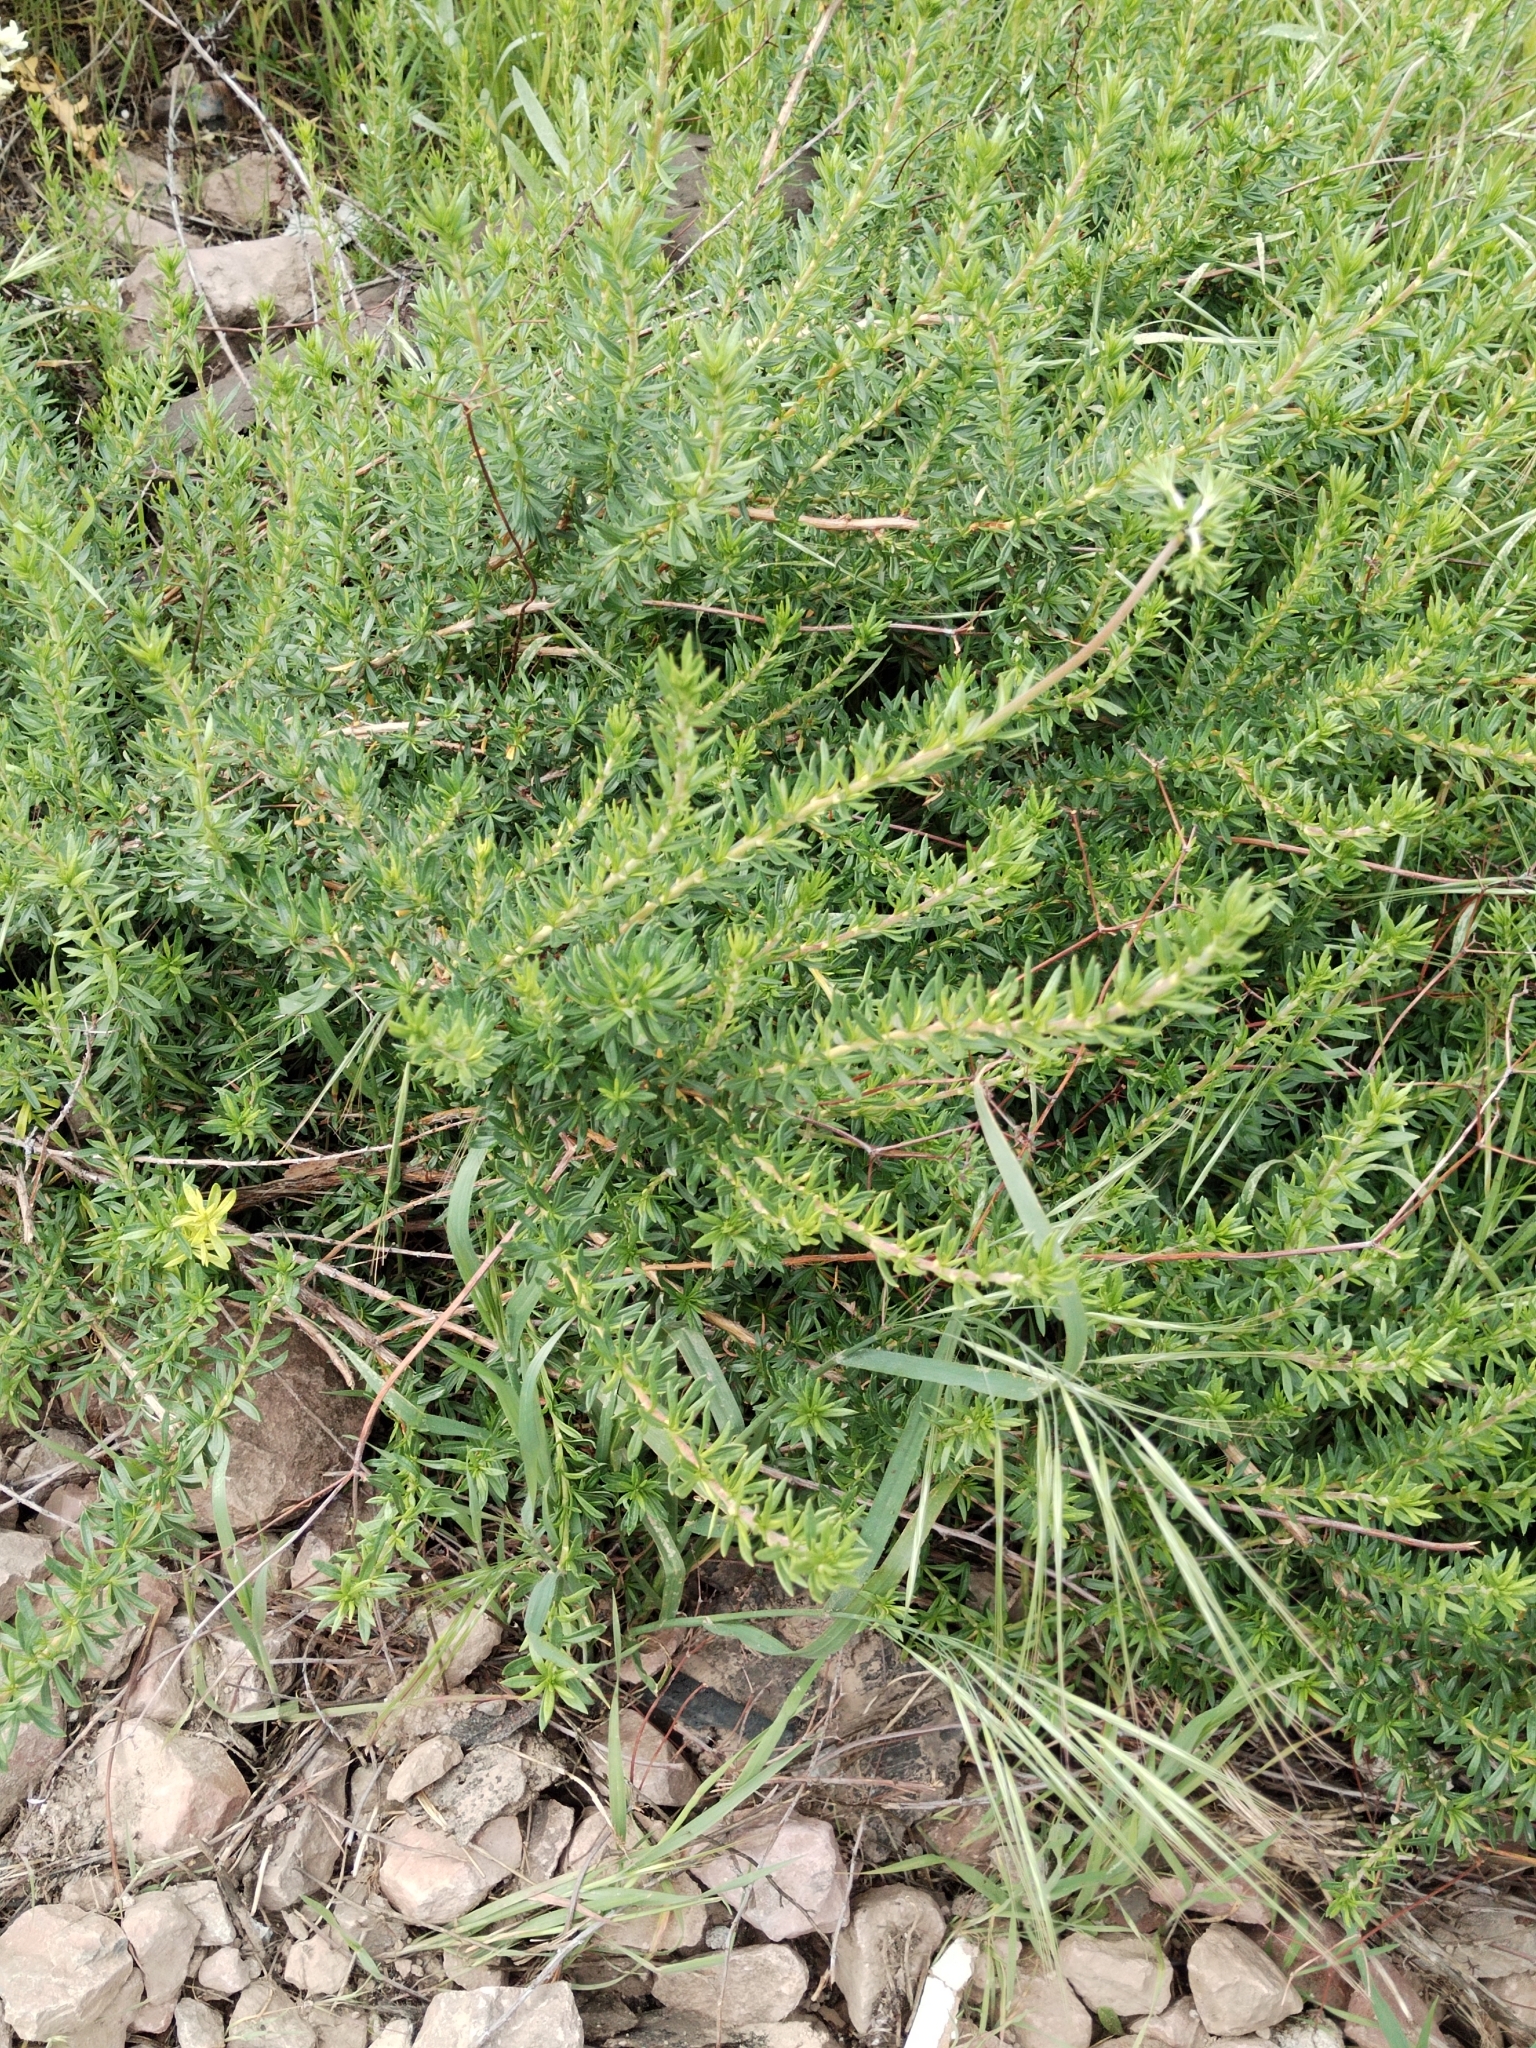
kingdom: Plantae
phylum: Tracheophyta
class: Magnoliopsida
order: Caryophyllales
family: Polygonaceae
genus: Eriogonum
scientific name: Eriogonum fasciculatum
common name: California wild buckwheat
